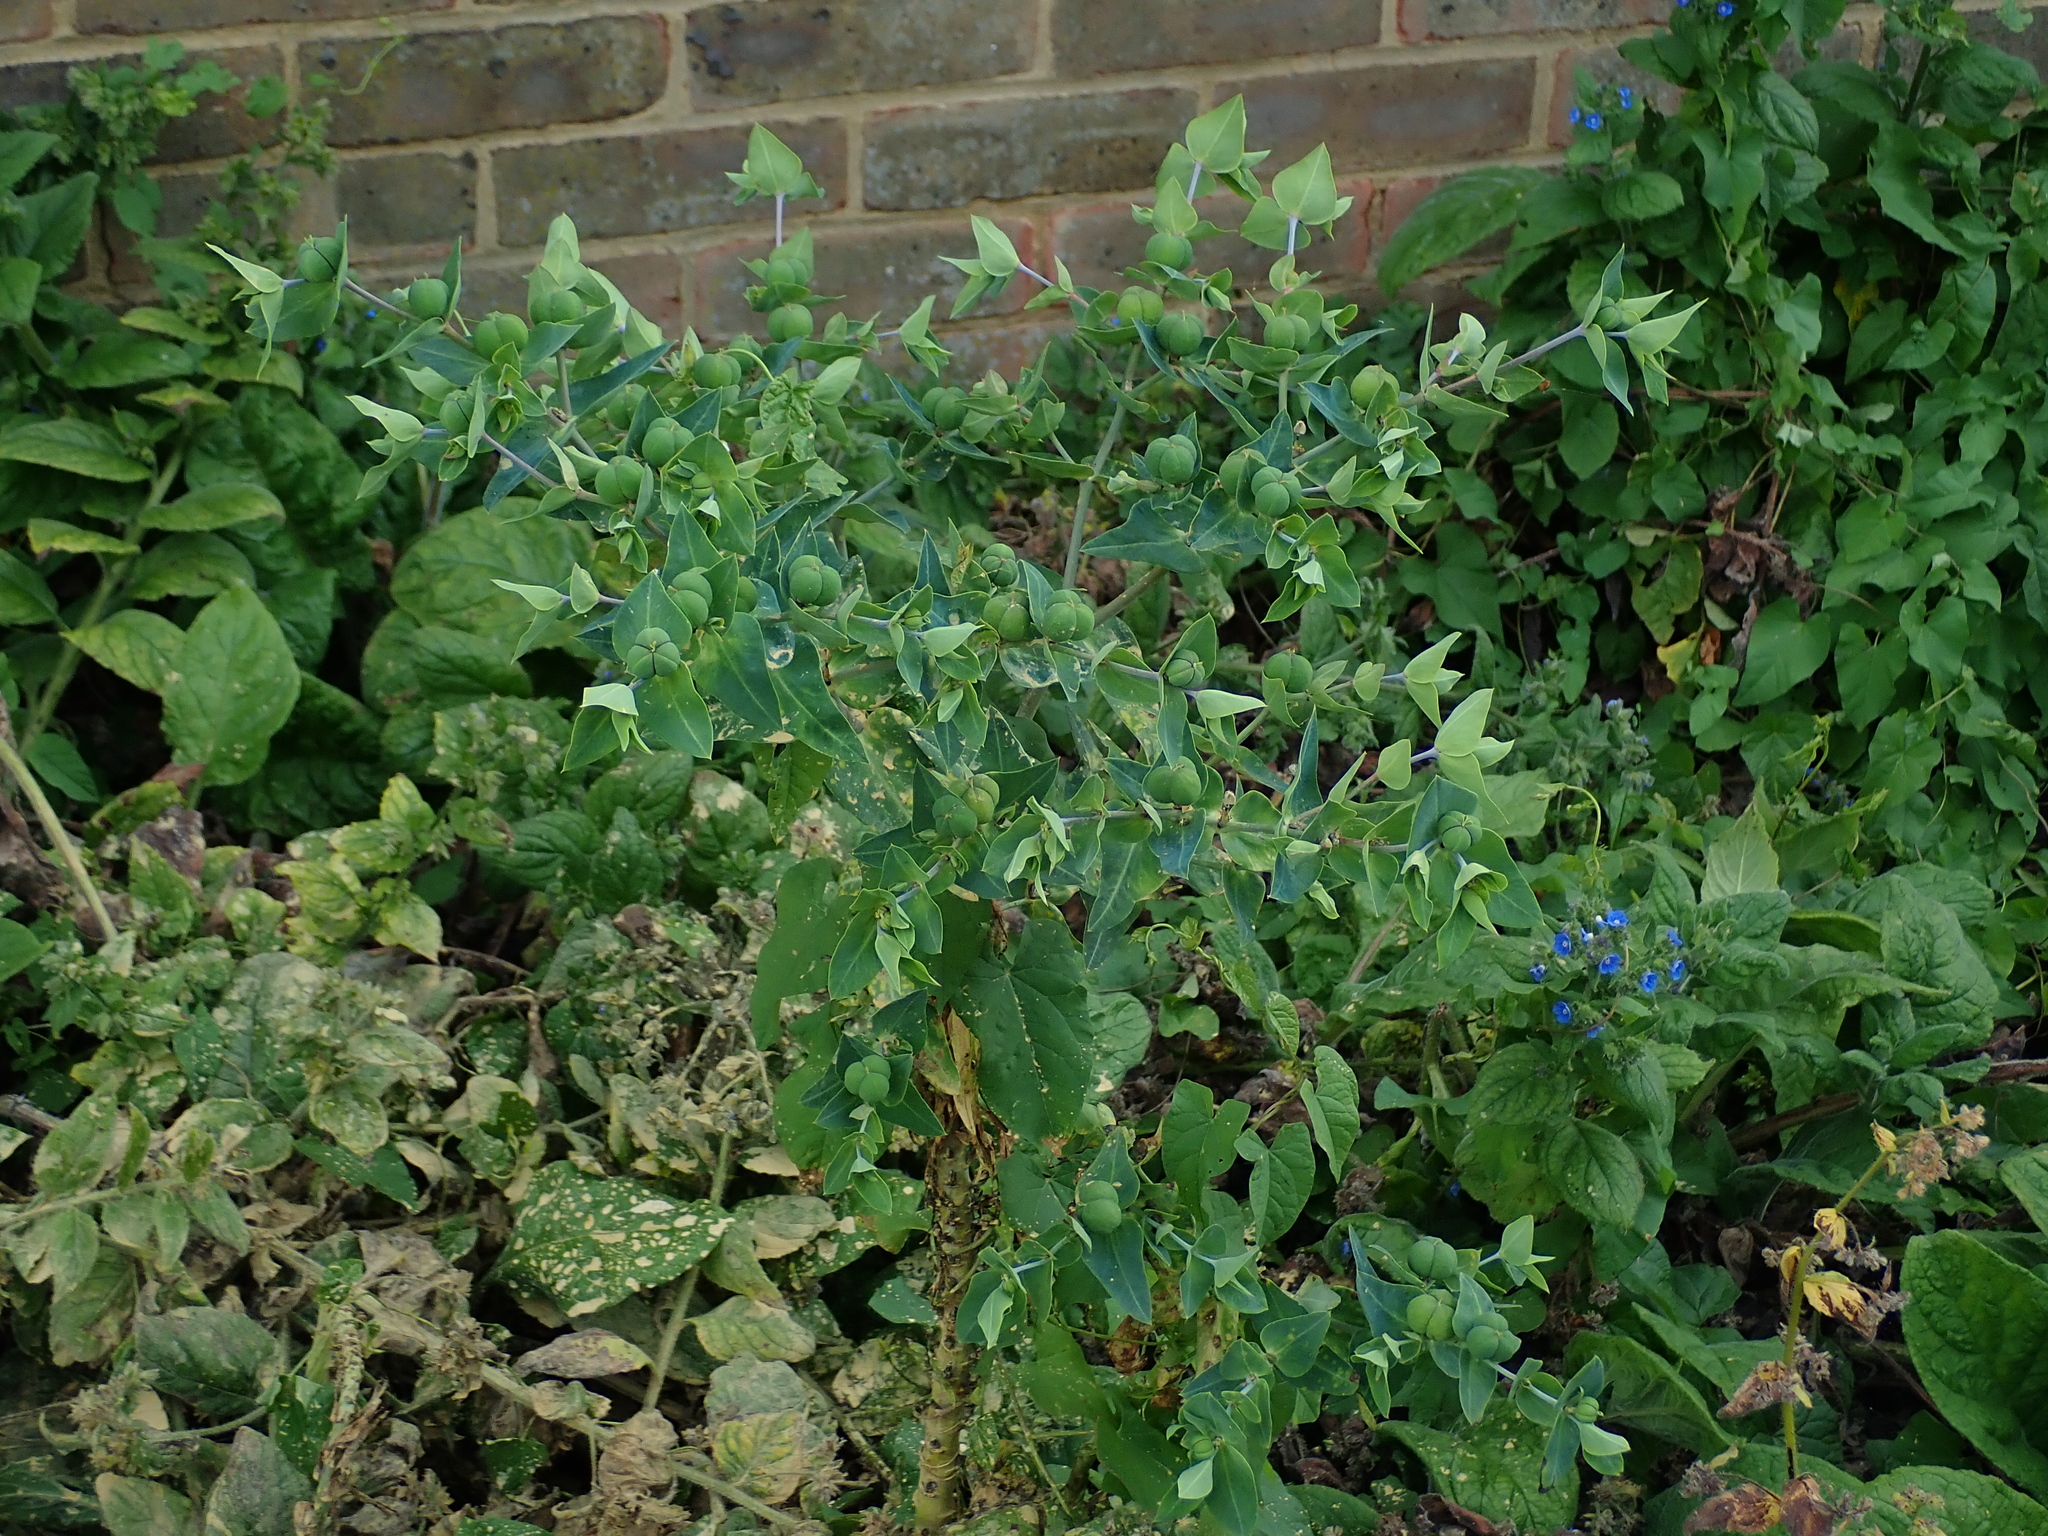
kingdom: Plantae
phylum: Tracheophyta
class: Magnoliopsida
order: Malpighiales
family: Euphorbiaceae
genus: Euphorbia
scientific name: Euphorbia lathyris
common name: Caper spurge
